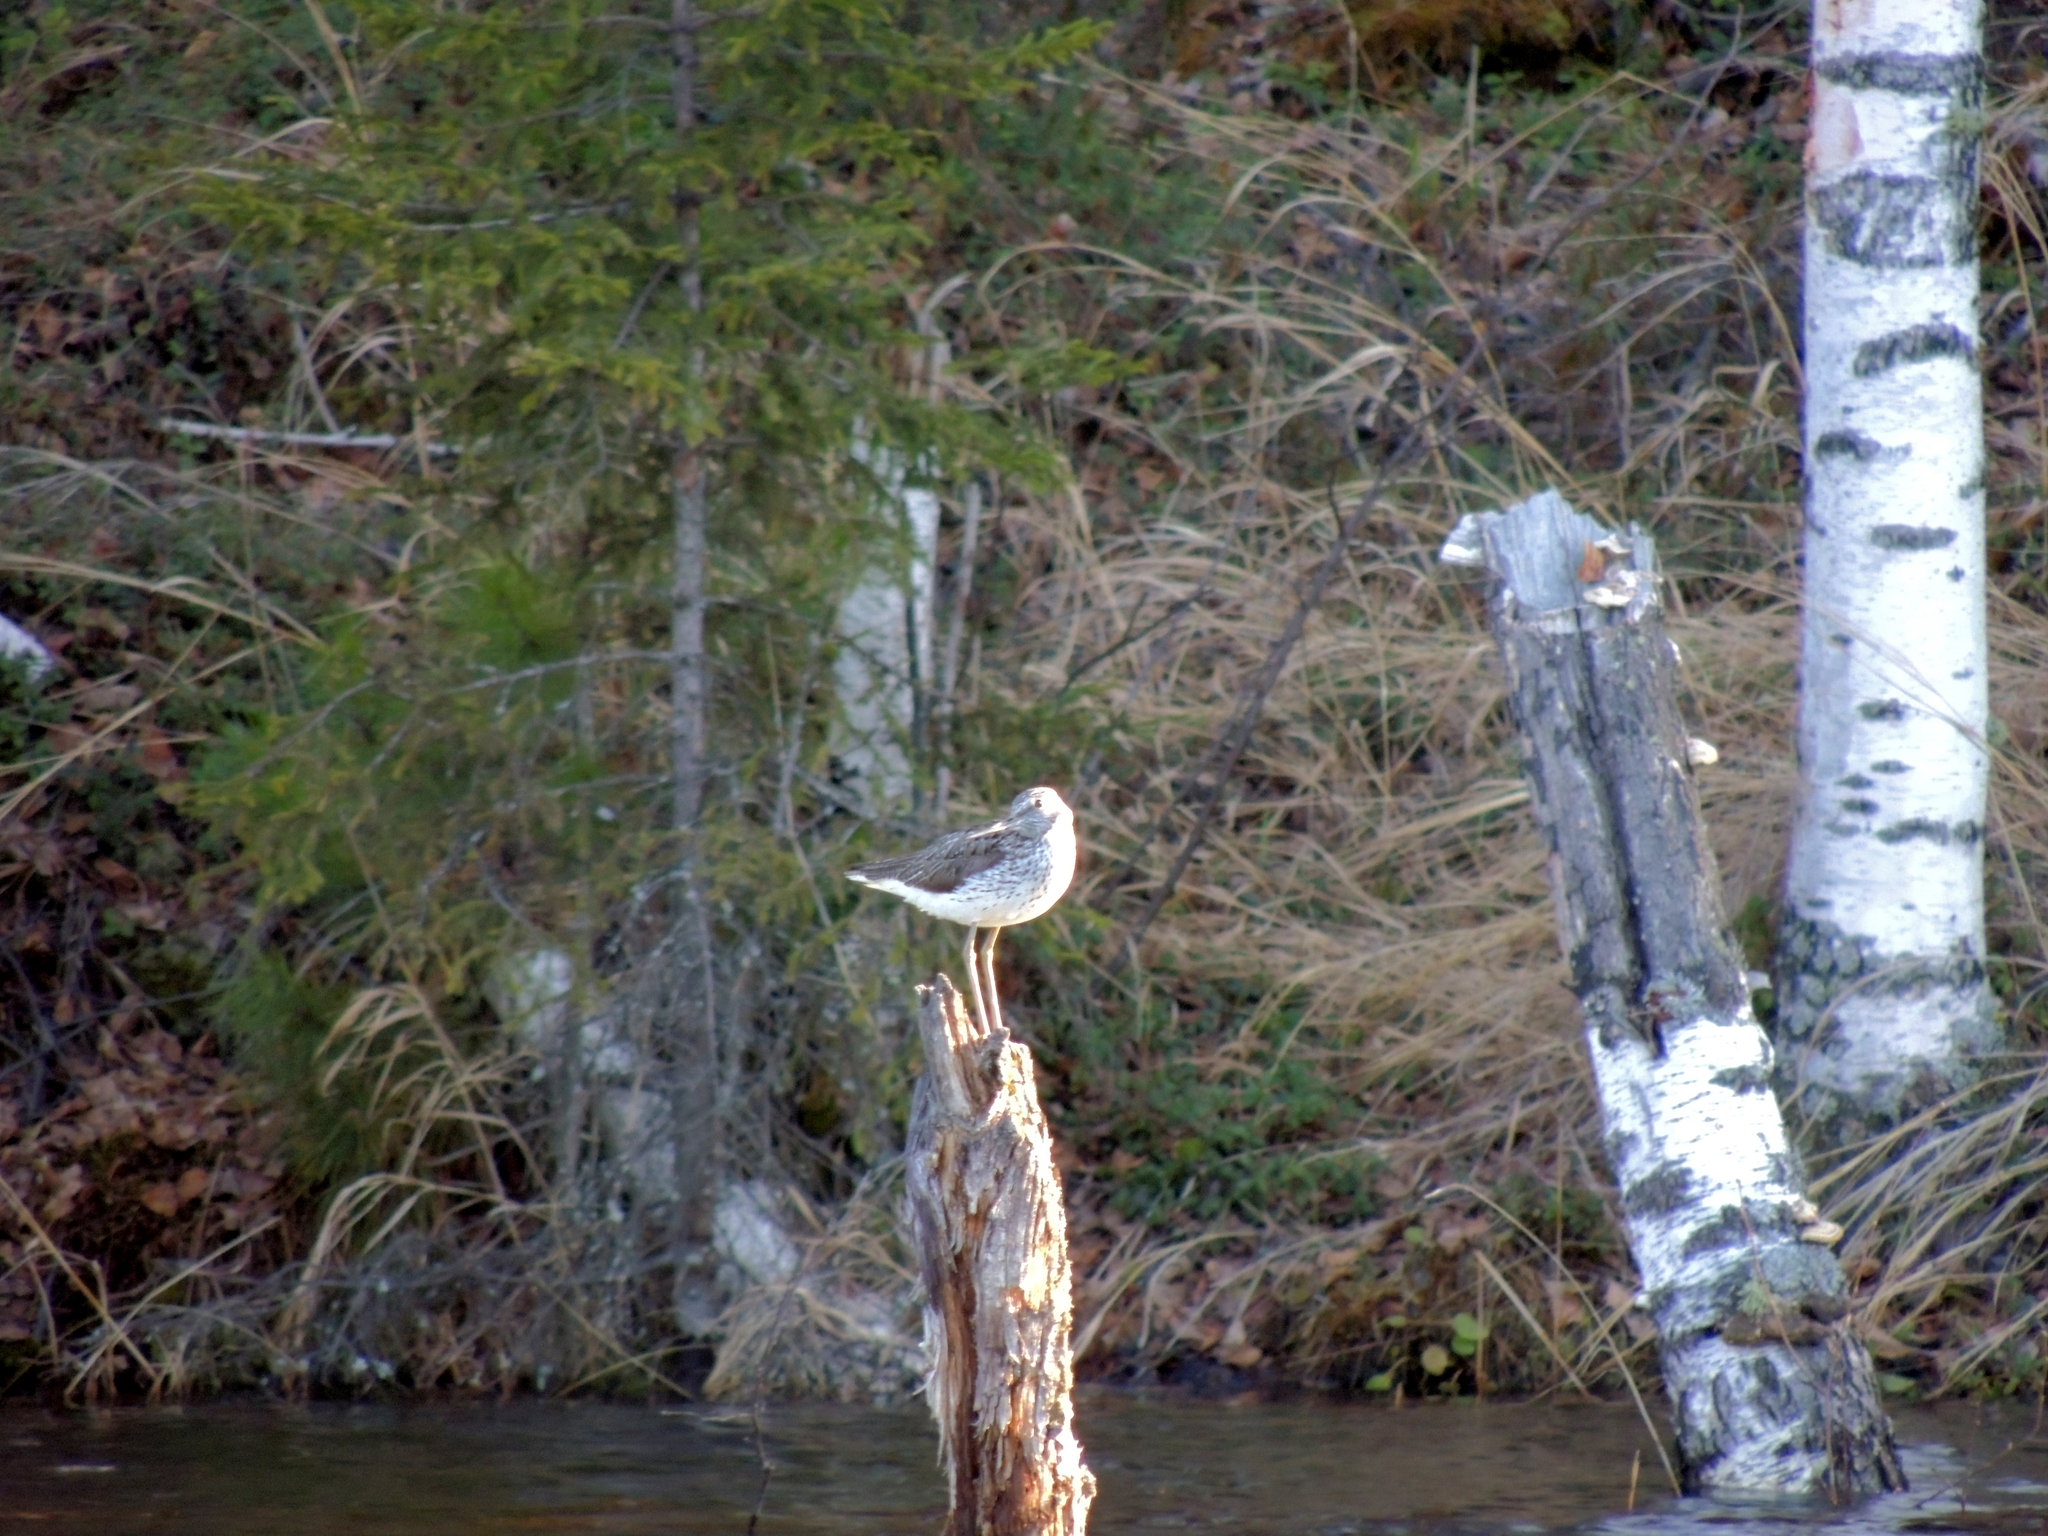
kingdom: Animalia
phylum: Chordata
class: Aves
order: Charadriiformes
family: Scolopacidae
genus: Tringa
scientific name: Tringa nebularia
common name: Common greenshank
